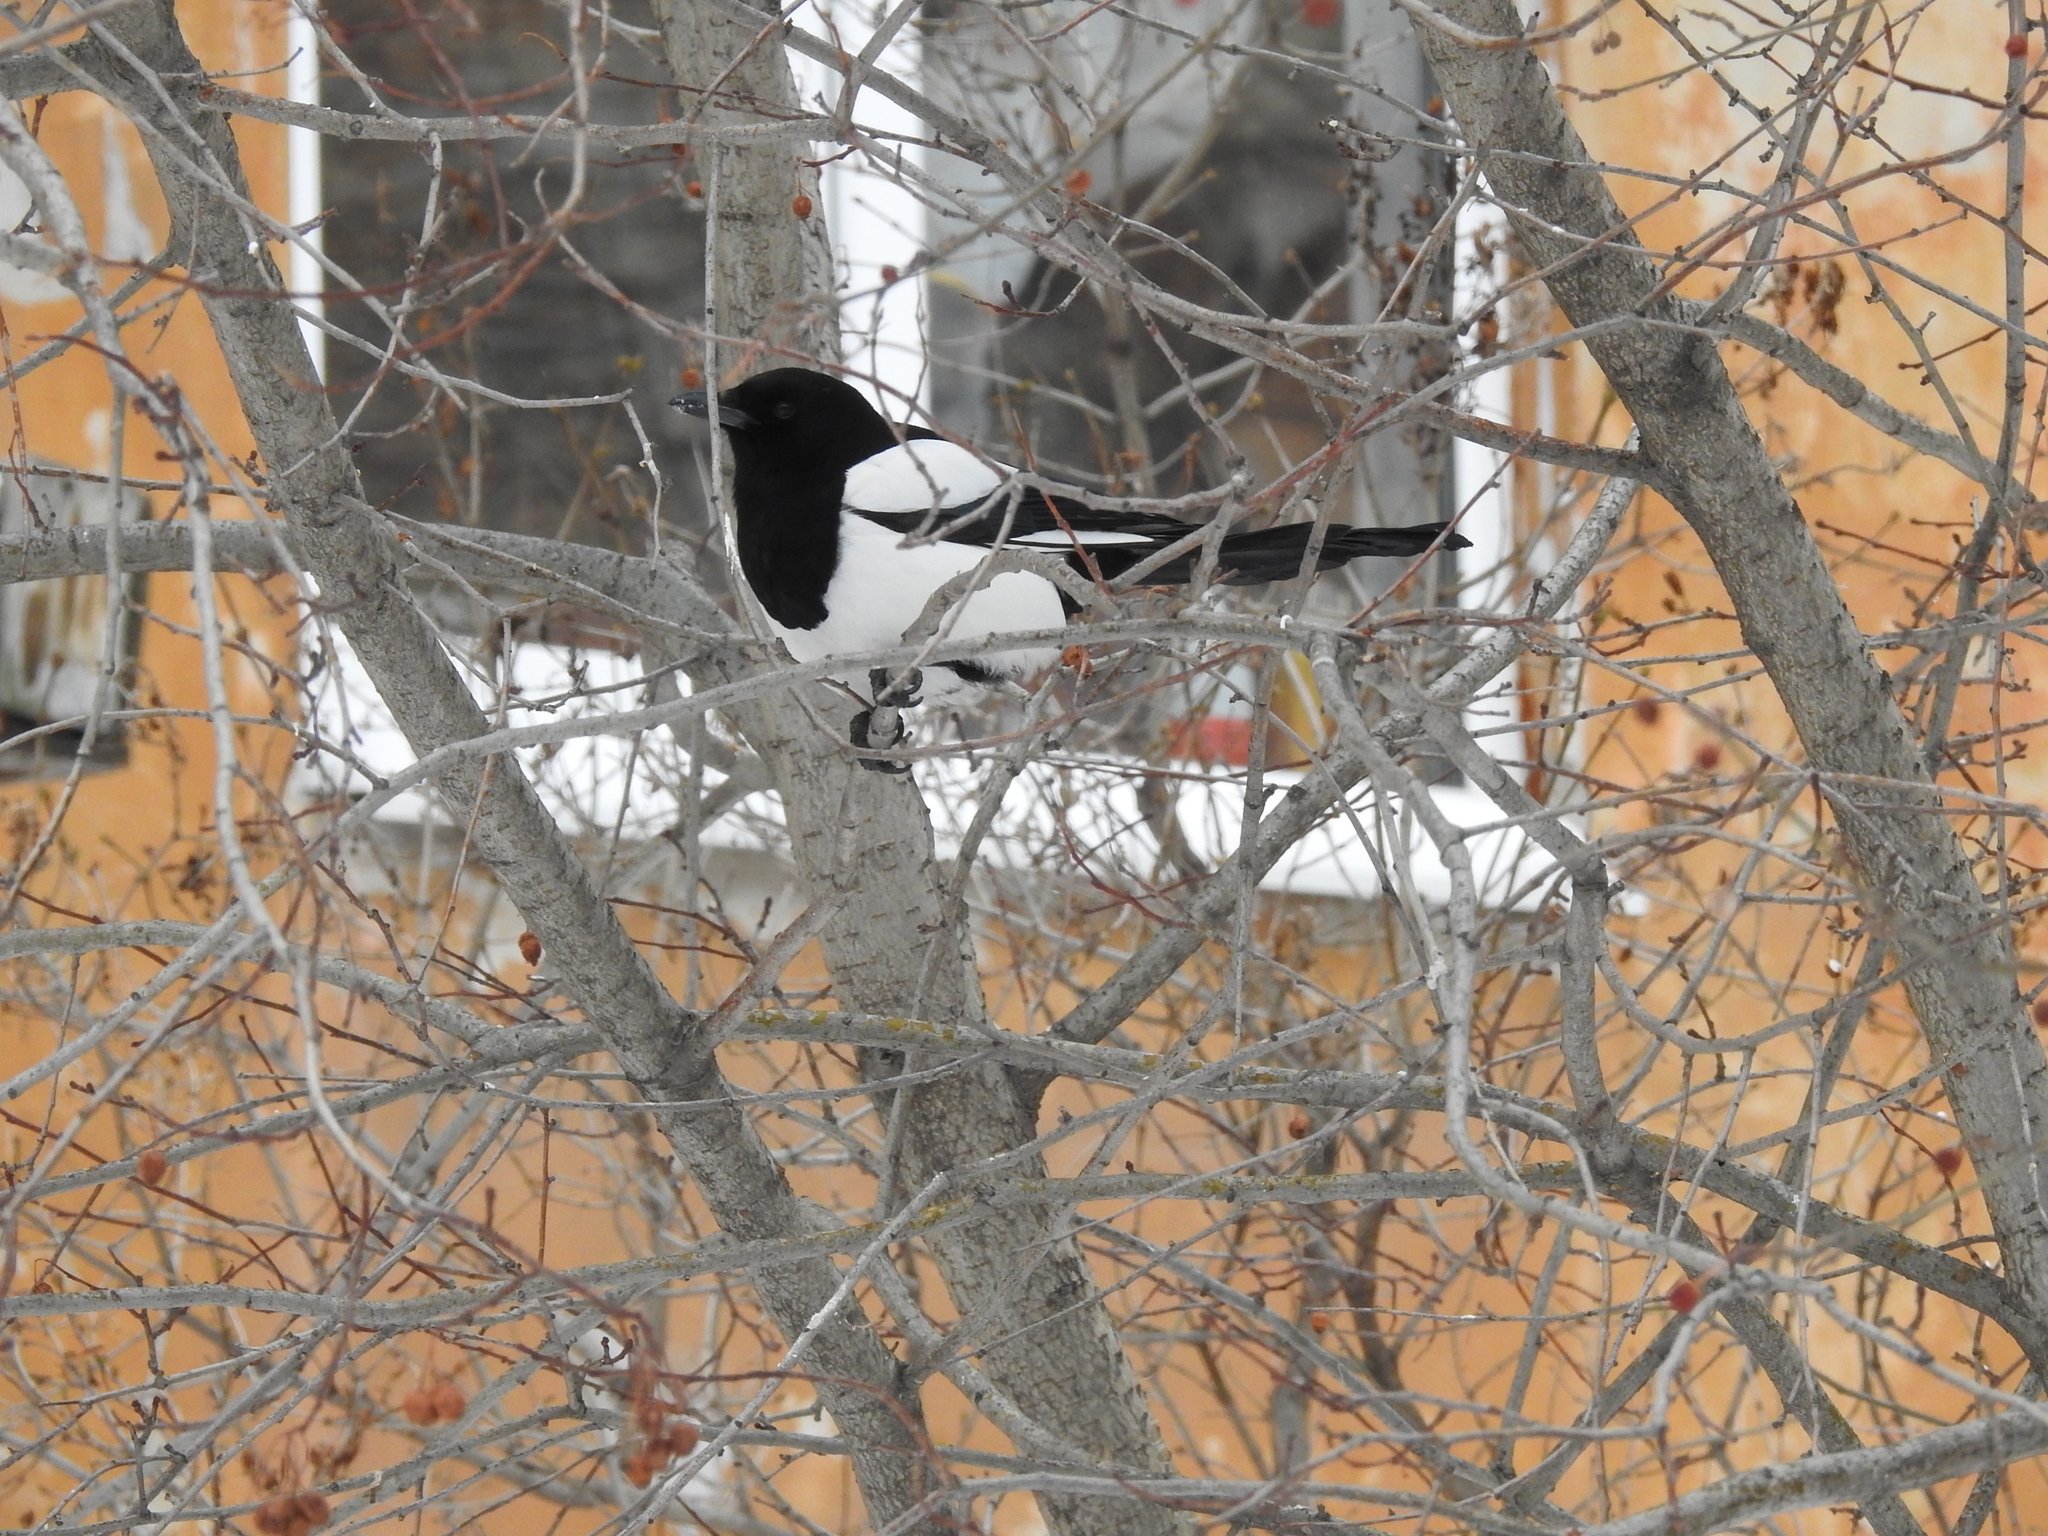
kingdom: Animalia
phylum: Chordata
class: Aves
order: Passeriformes
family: Corvidae
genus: Pica
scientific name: Pica pica
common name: Eurasian magpie
